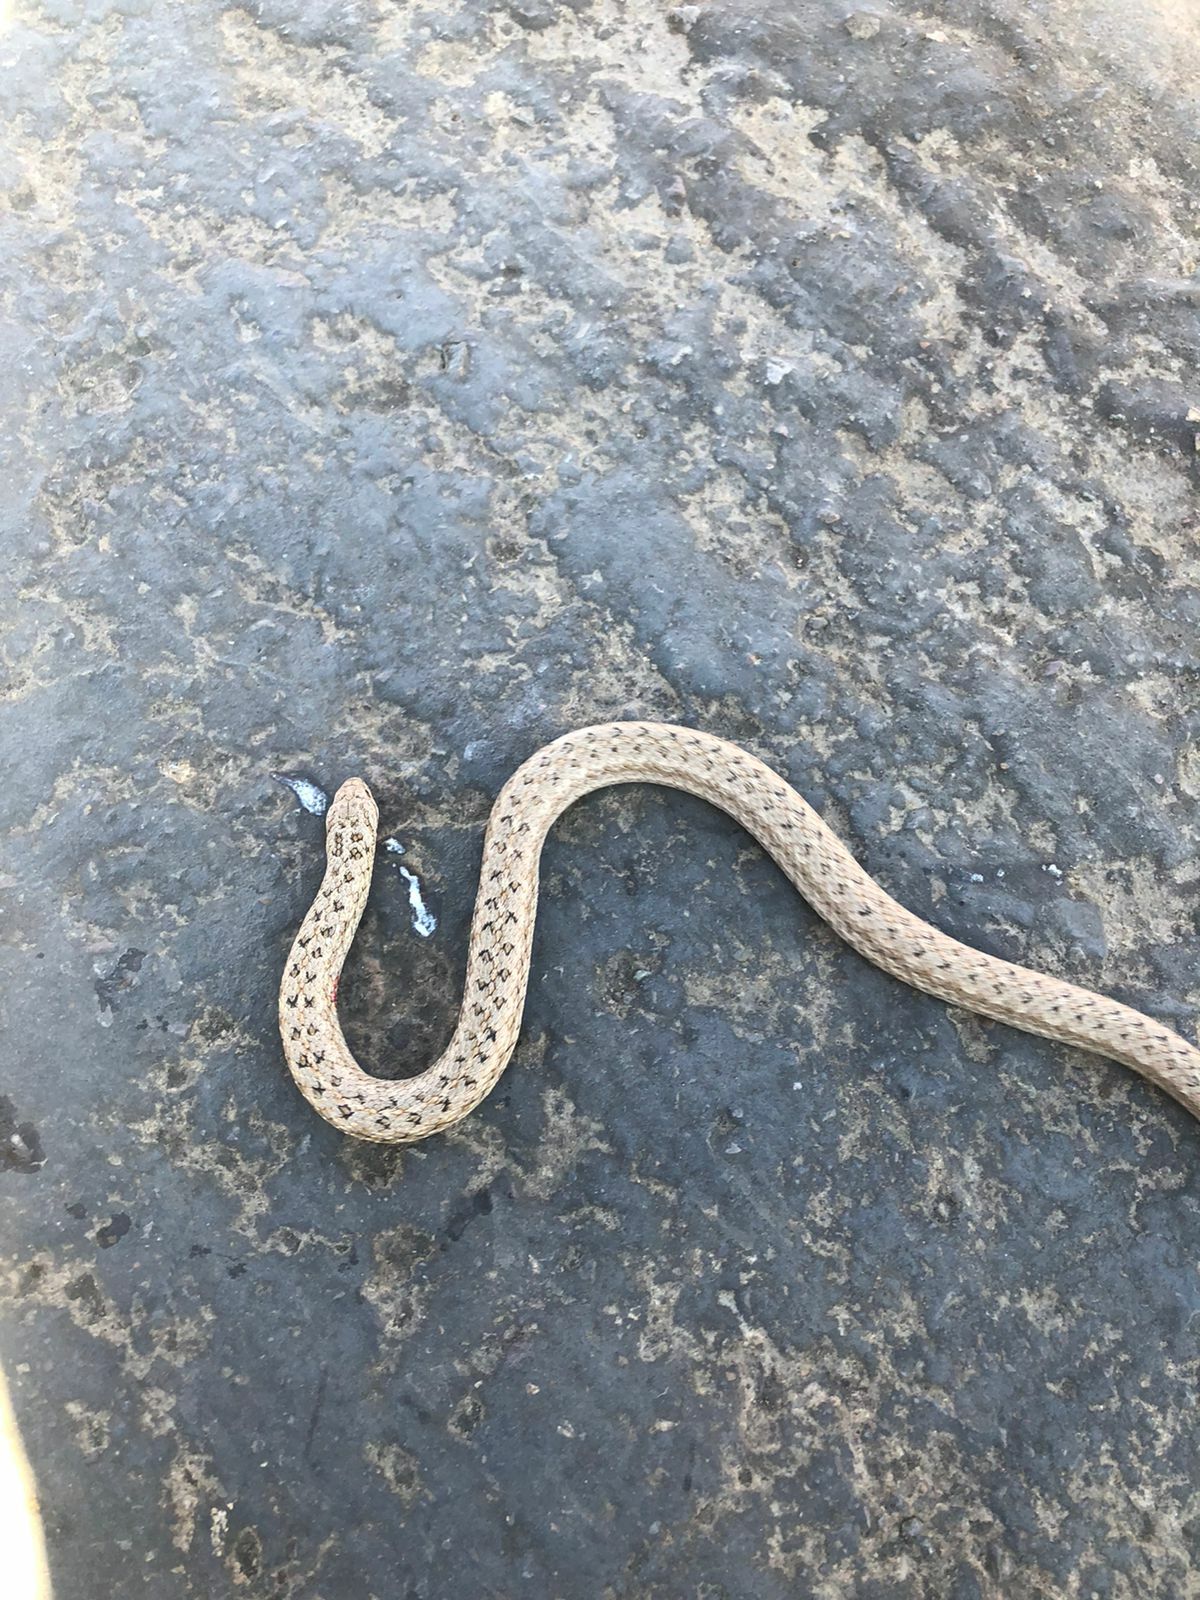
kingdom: Animalia
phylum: Chordata
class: Squamata
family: Colubridae
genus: Tachymenis
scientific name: Tachymenis peruviana
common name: Peru slender snake
